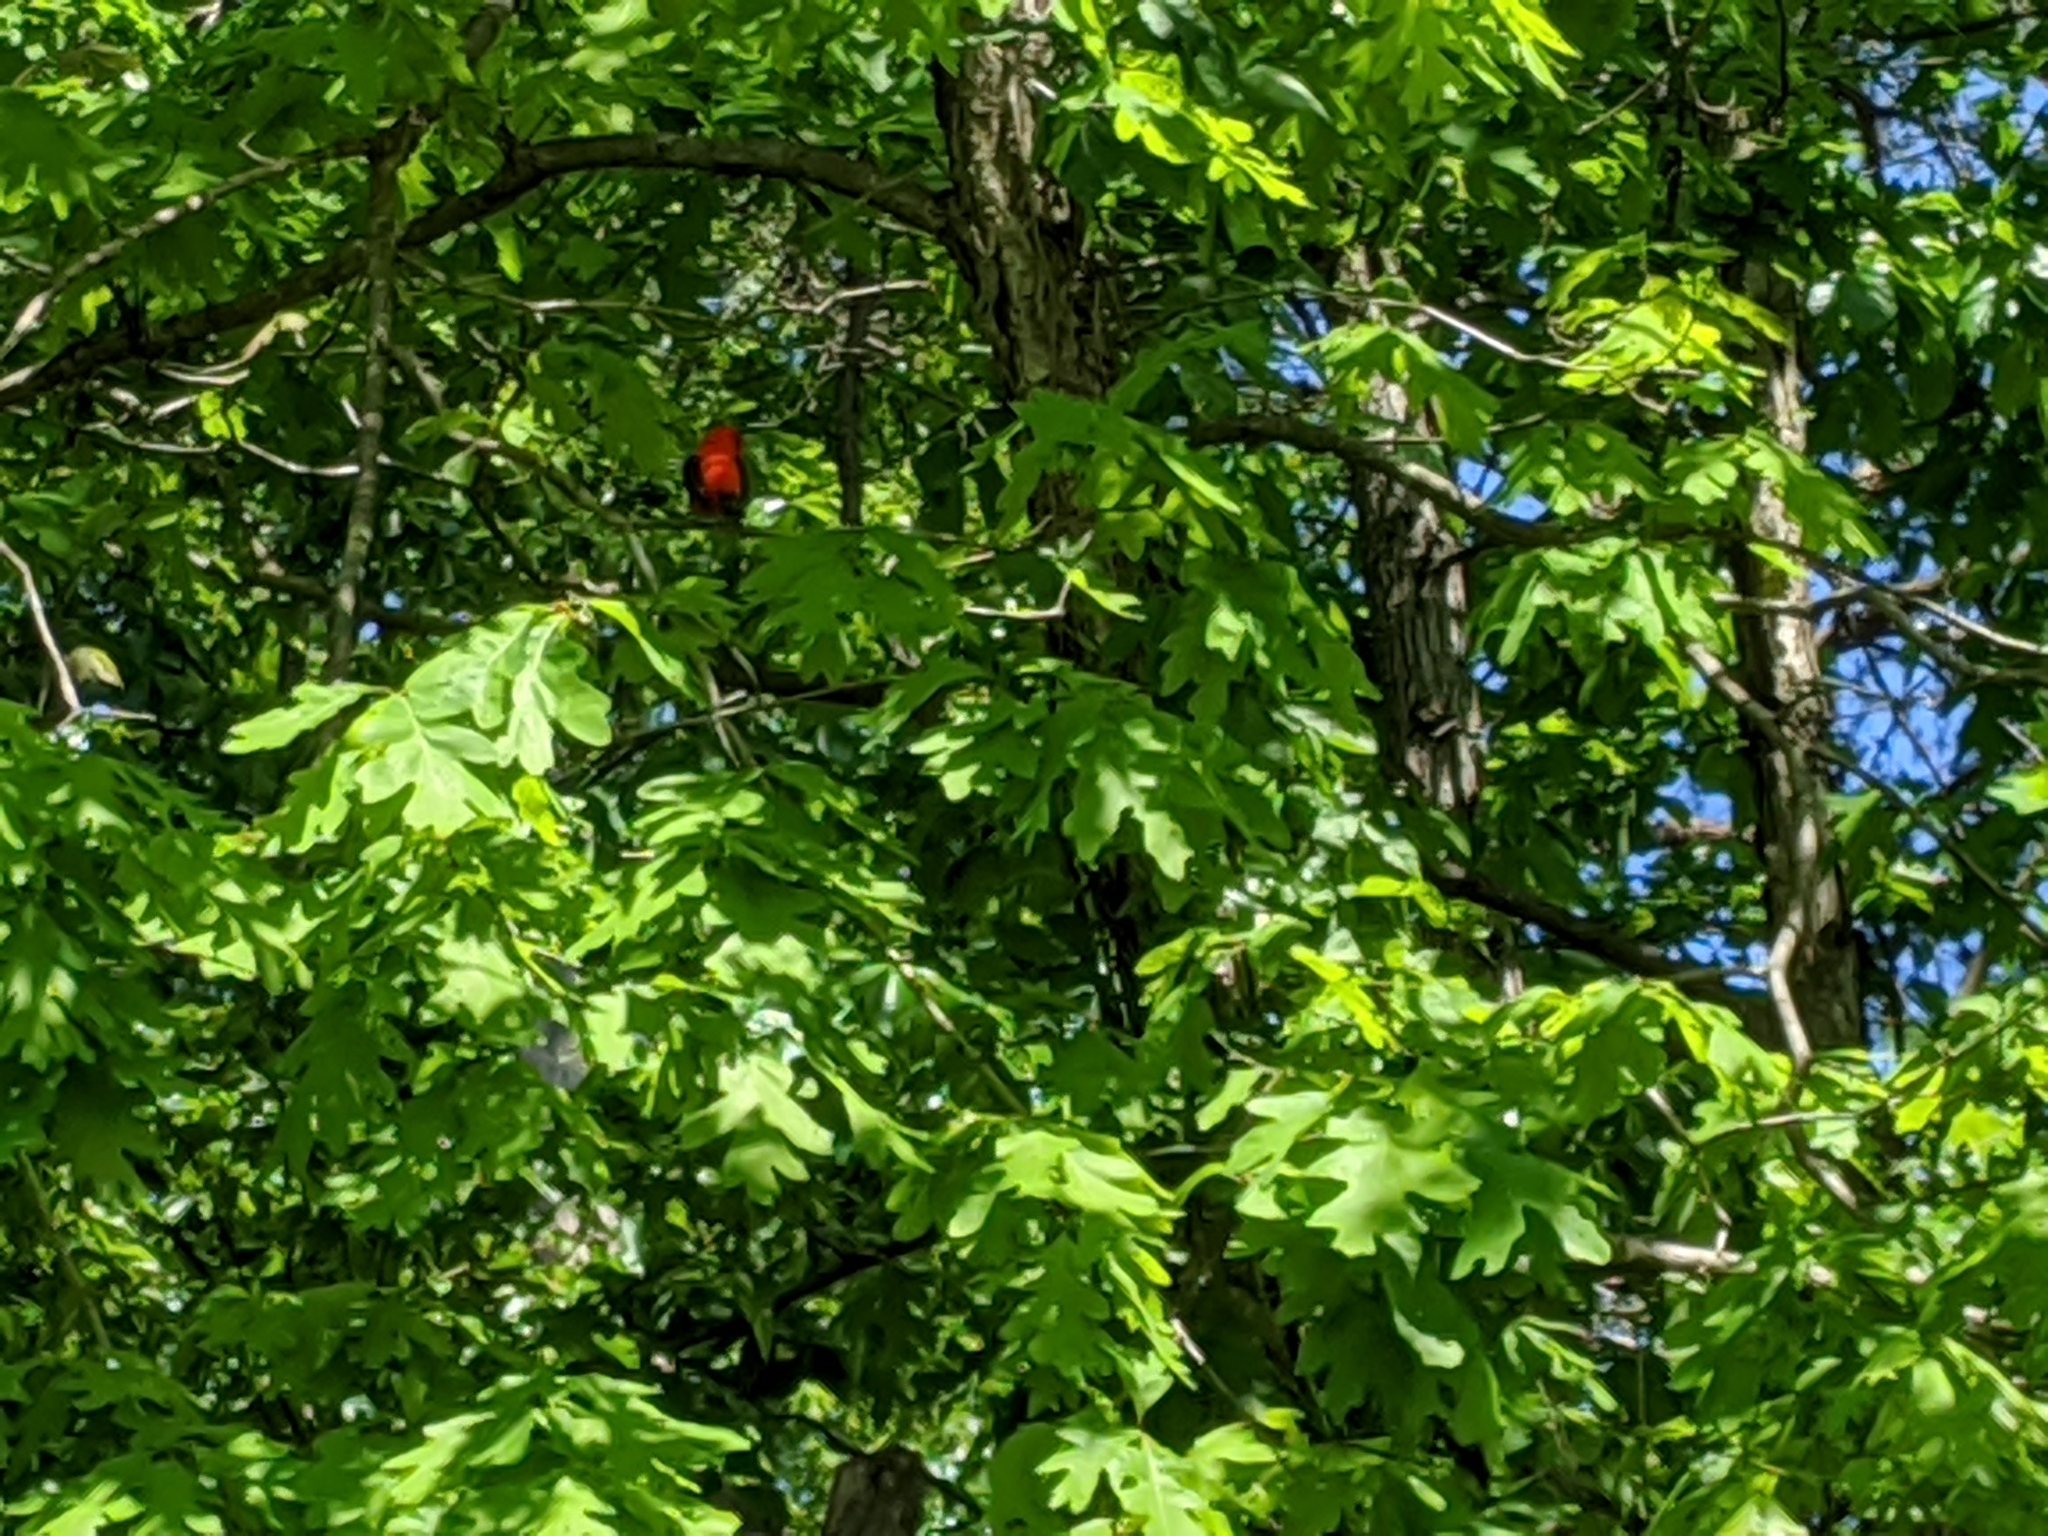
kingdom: Animalia
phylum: Chordata
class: Aves
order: Passeriformes
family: Cardinalidae
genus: Piranga
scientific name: Piranga olivacea
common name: Scarlet tanager
